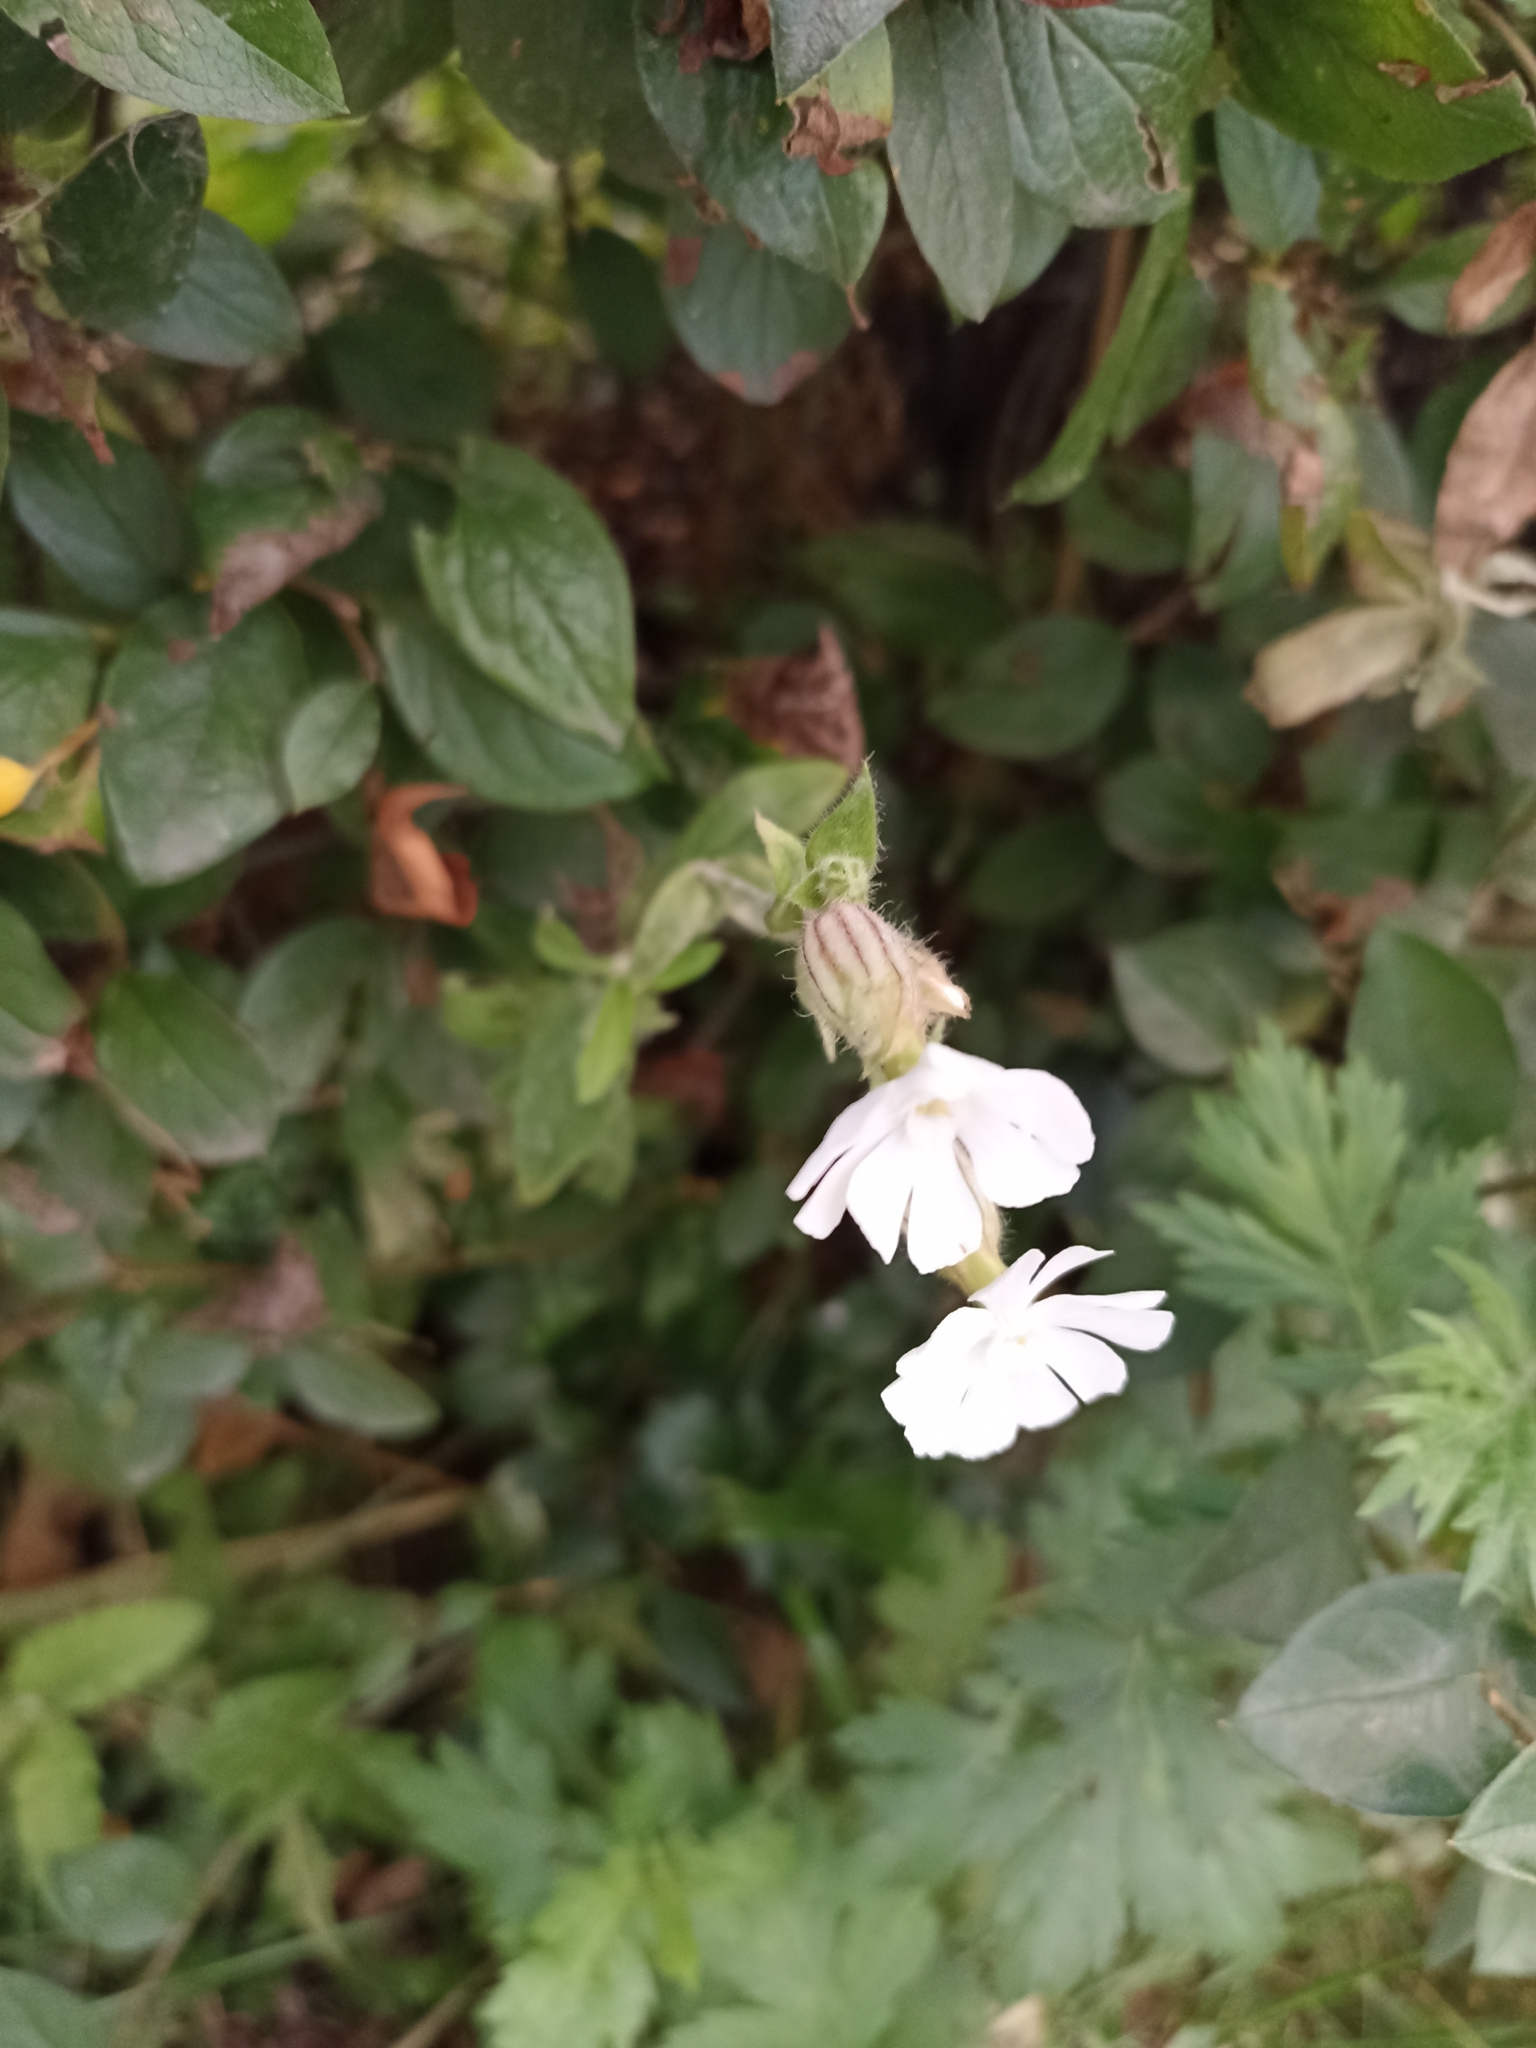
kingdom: Plantae
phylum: Tracheophyta
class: Magnoliopsida
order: Caryophyllales
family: Caryophyllaceae
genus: Silene
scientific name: Silene latifolia
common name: White campion
